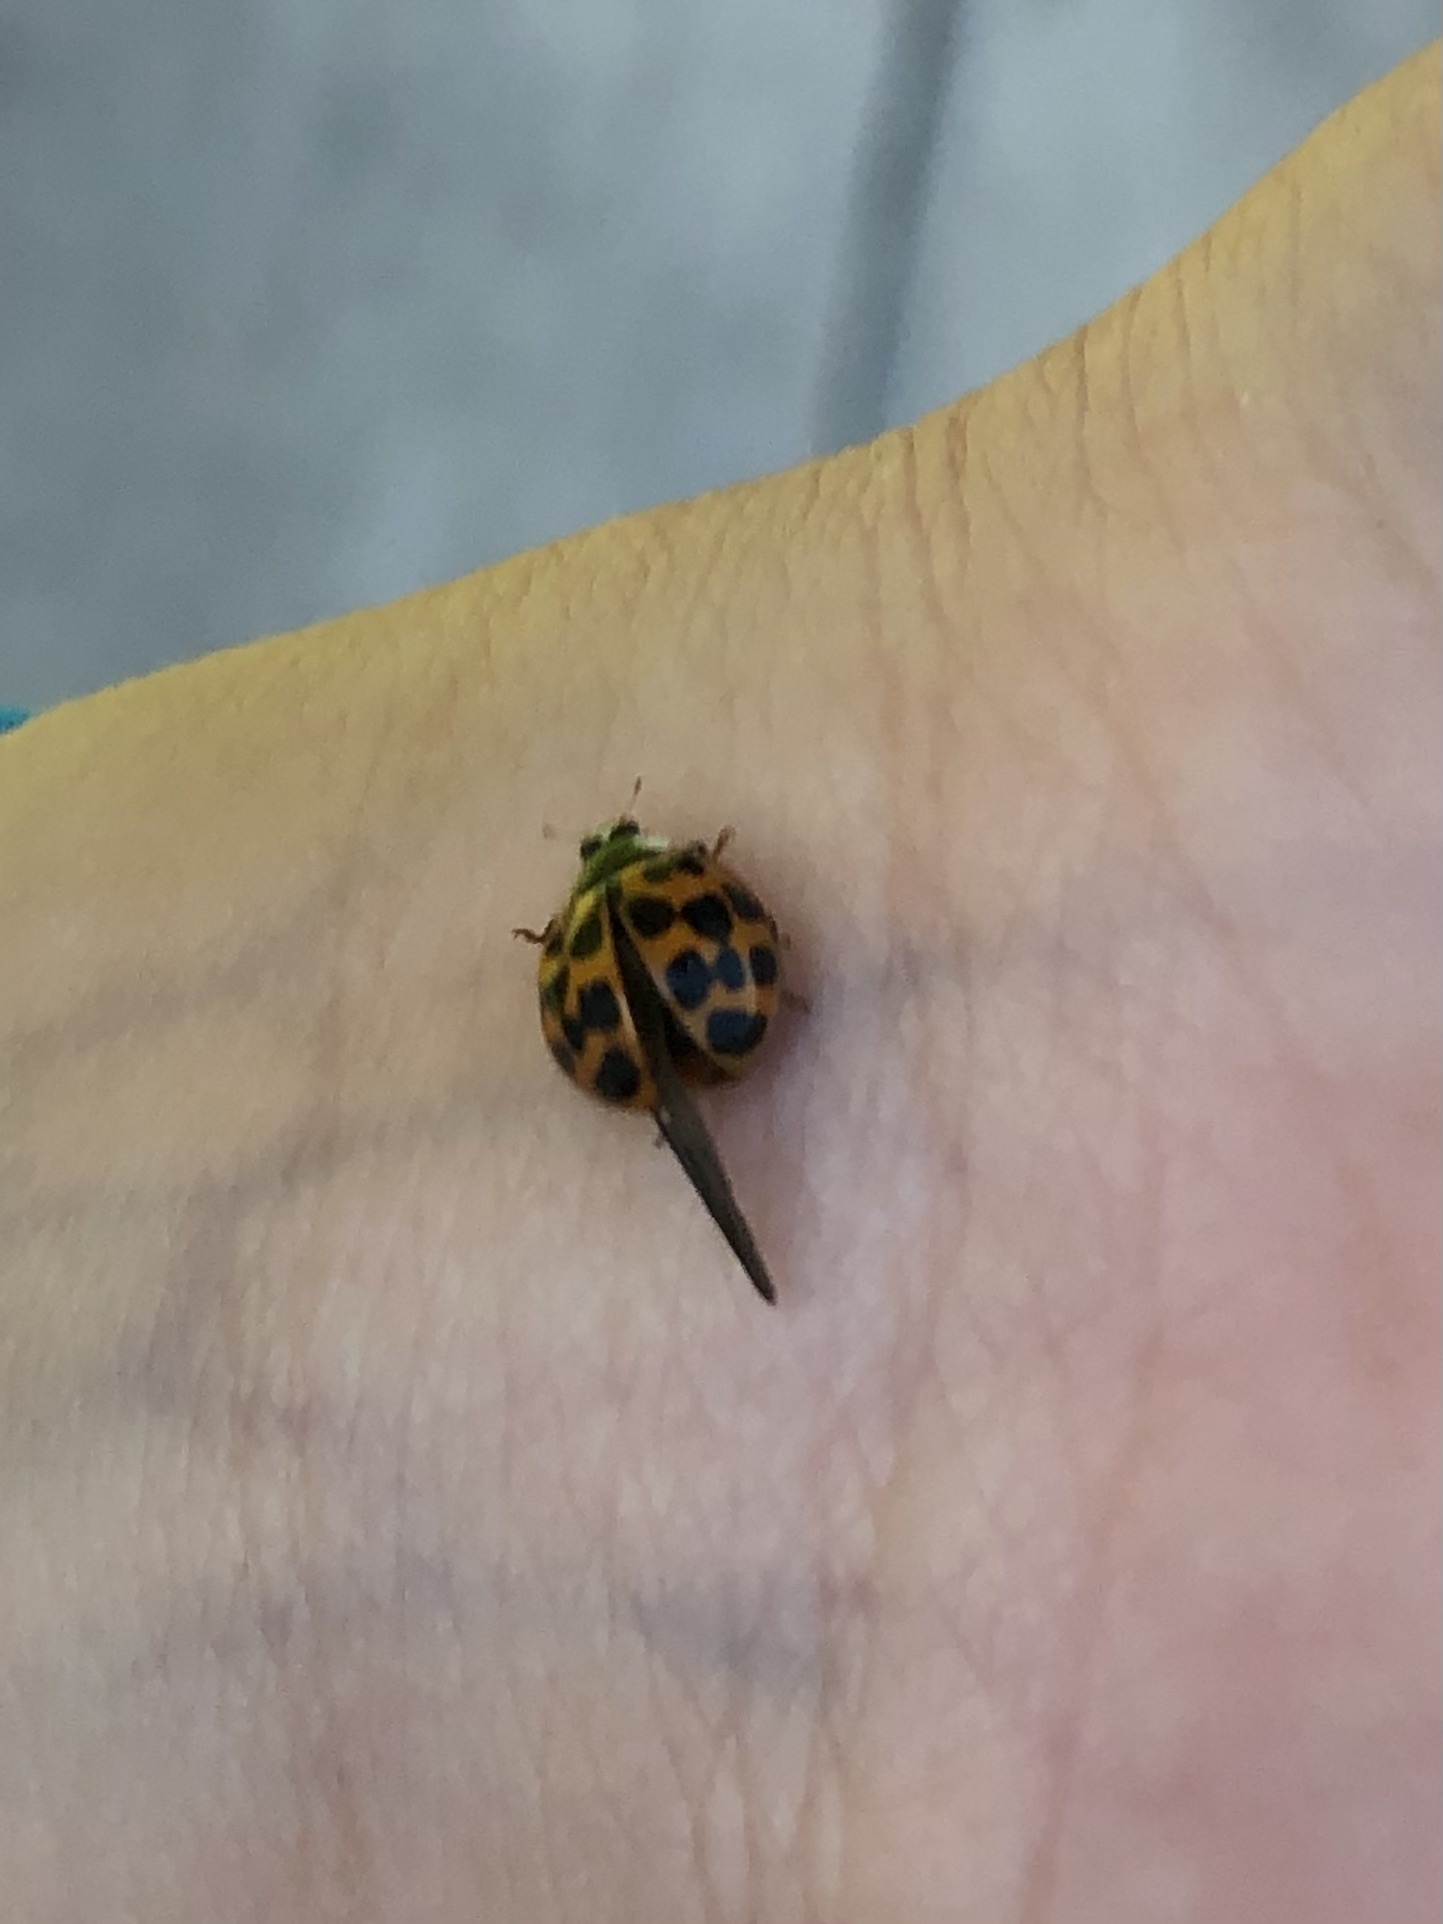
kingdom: Animalia
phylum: Arthropoda
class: Insecta
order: Coleoptera
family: Coccinellidae
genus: Harmonia
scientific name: Harmonia axyridis
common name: Harlequin ladybird
